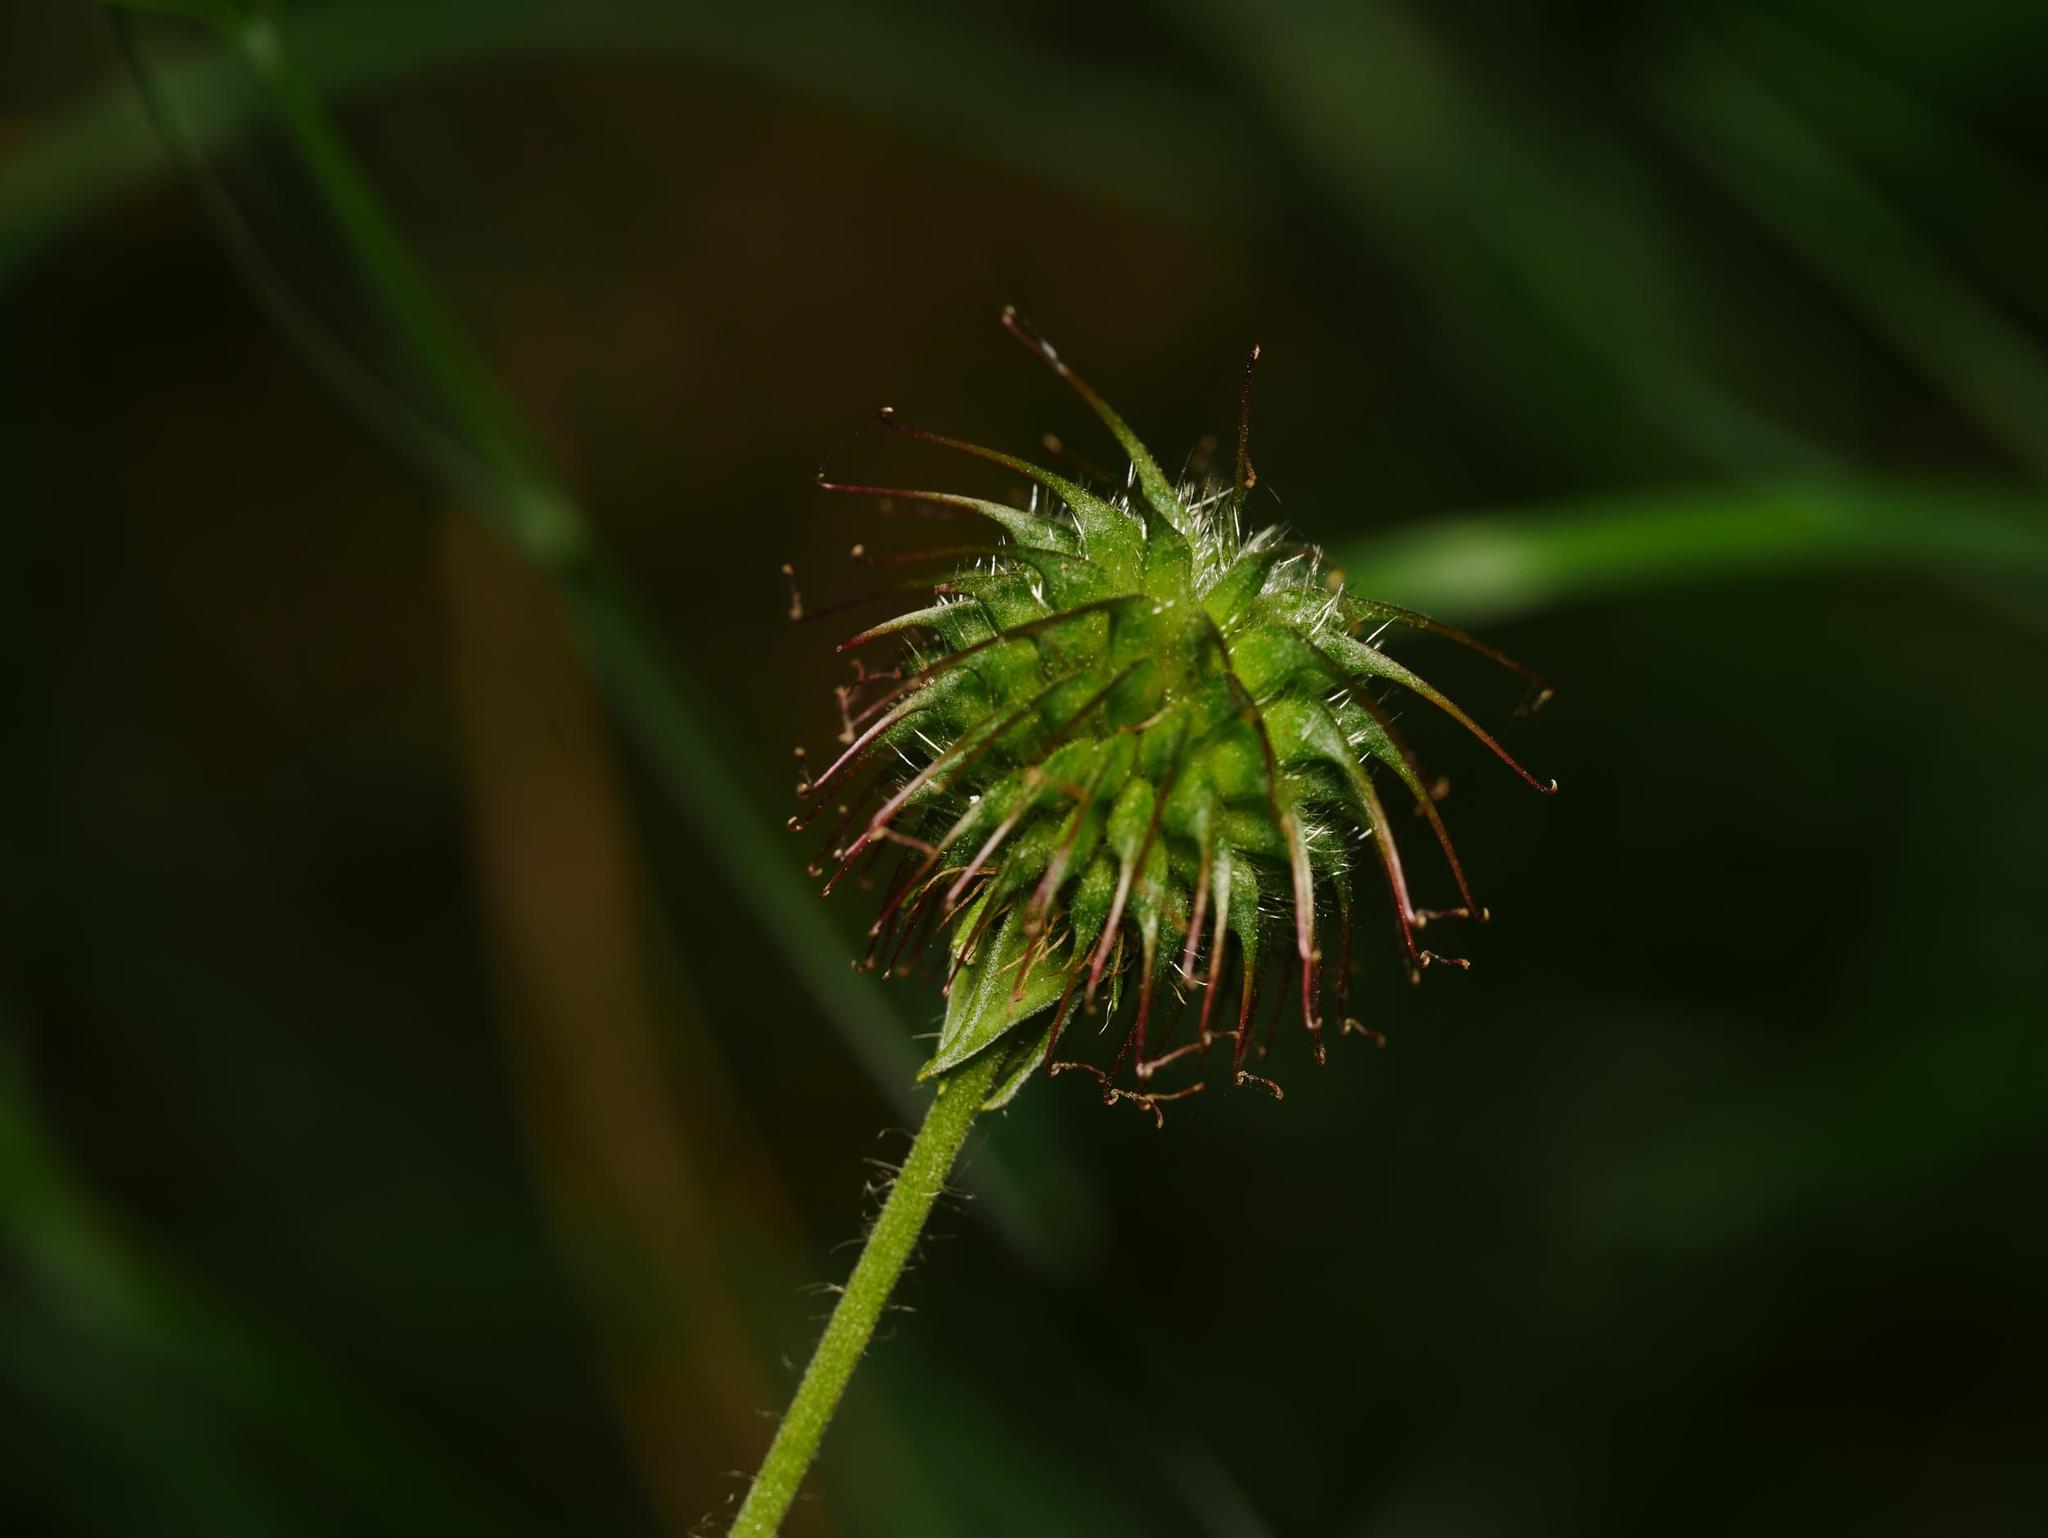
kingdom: Plantae
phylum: Tracheophyta
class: Magnoliopsida
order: Rosales
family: Rosaceae
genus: Geum
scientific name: Geum urbanum
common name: Wood avens
